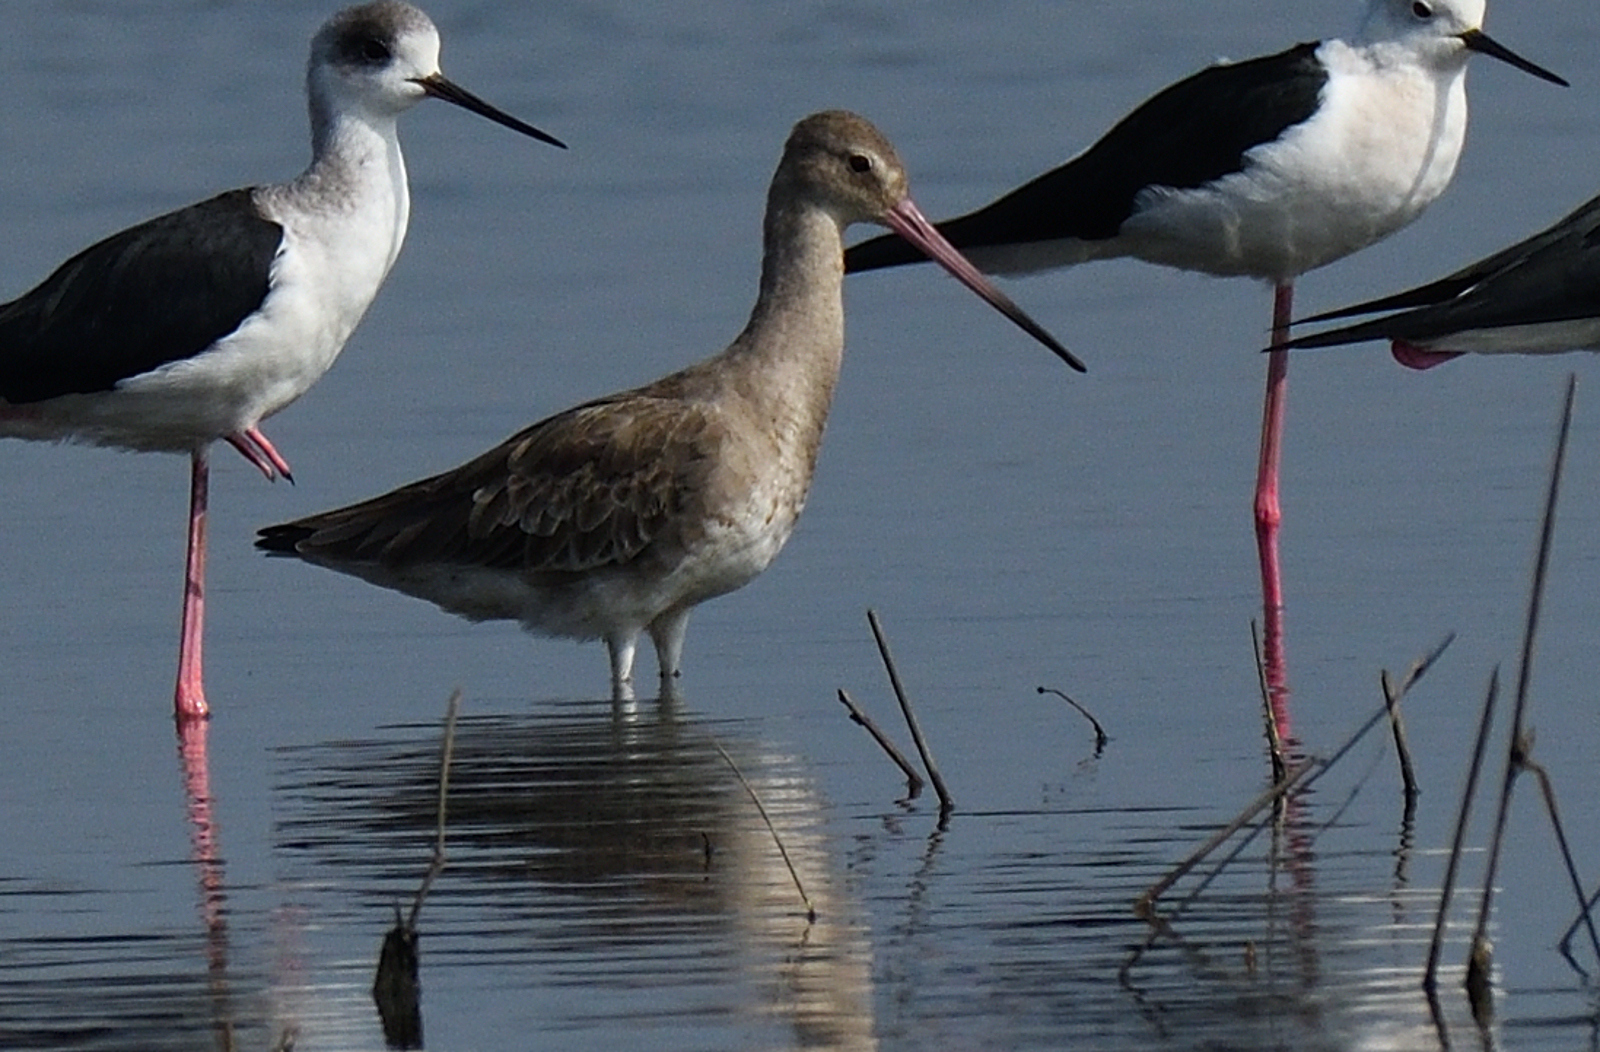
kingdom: Animalia
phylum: Chordata
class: Aves
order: Charadriiformes
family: Scolopacidae
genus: Limosa
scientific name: Limosa limosa
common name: Black-tailed godwit
